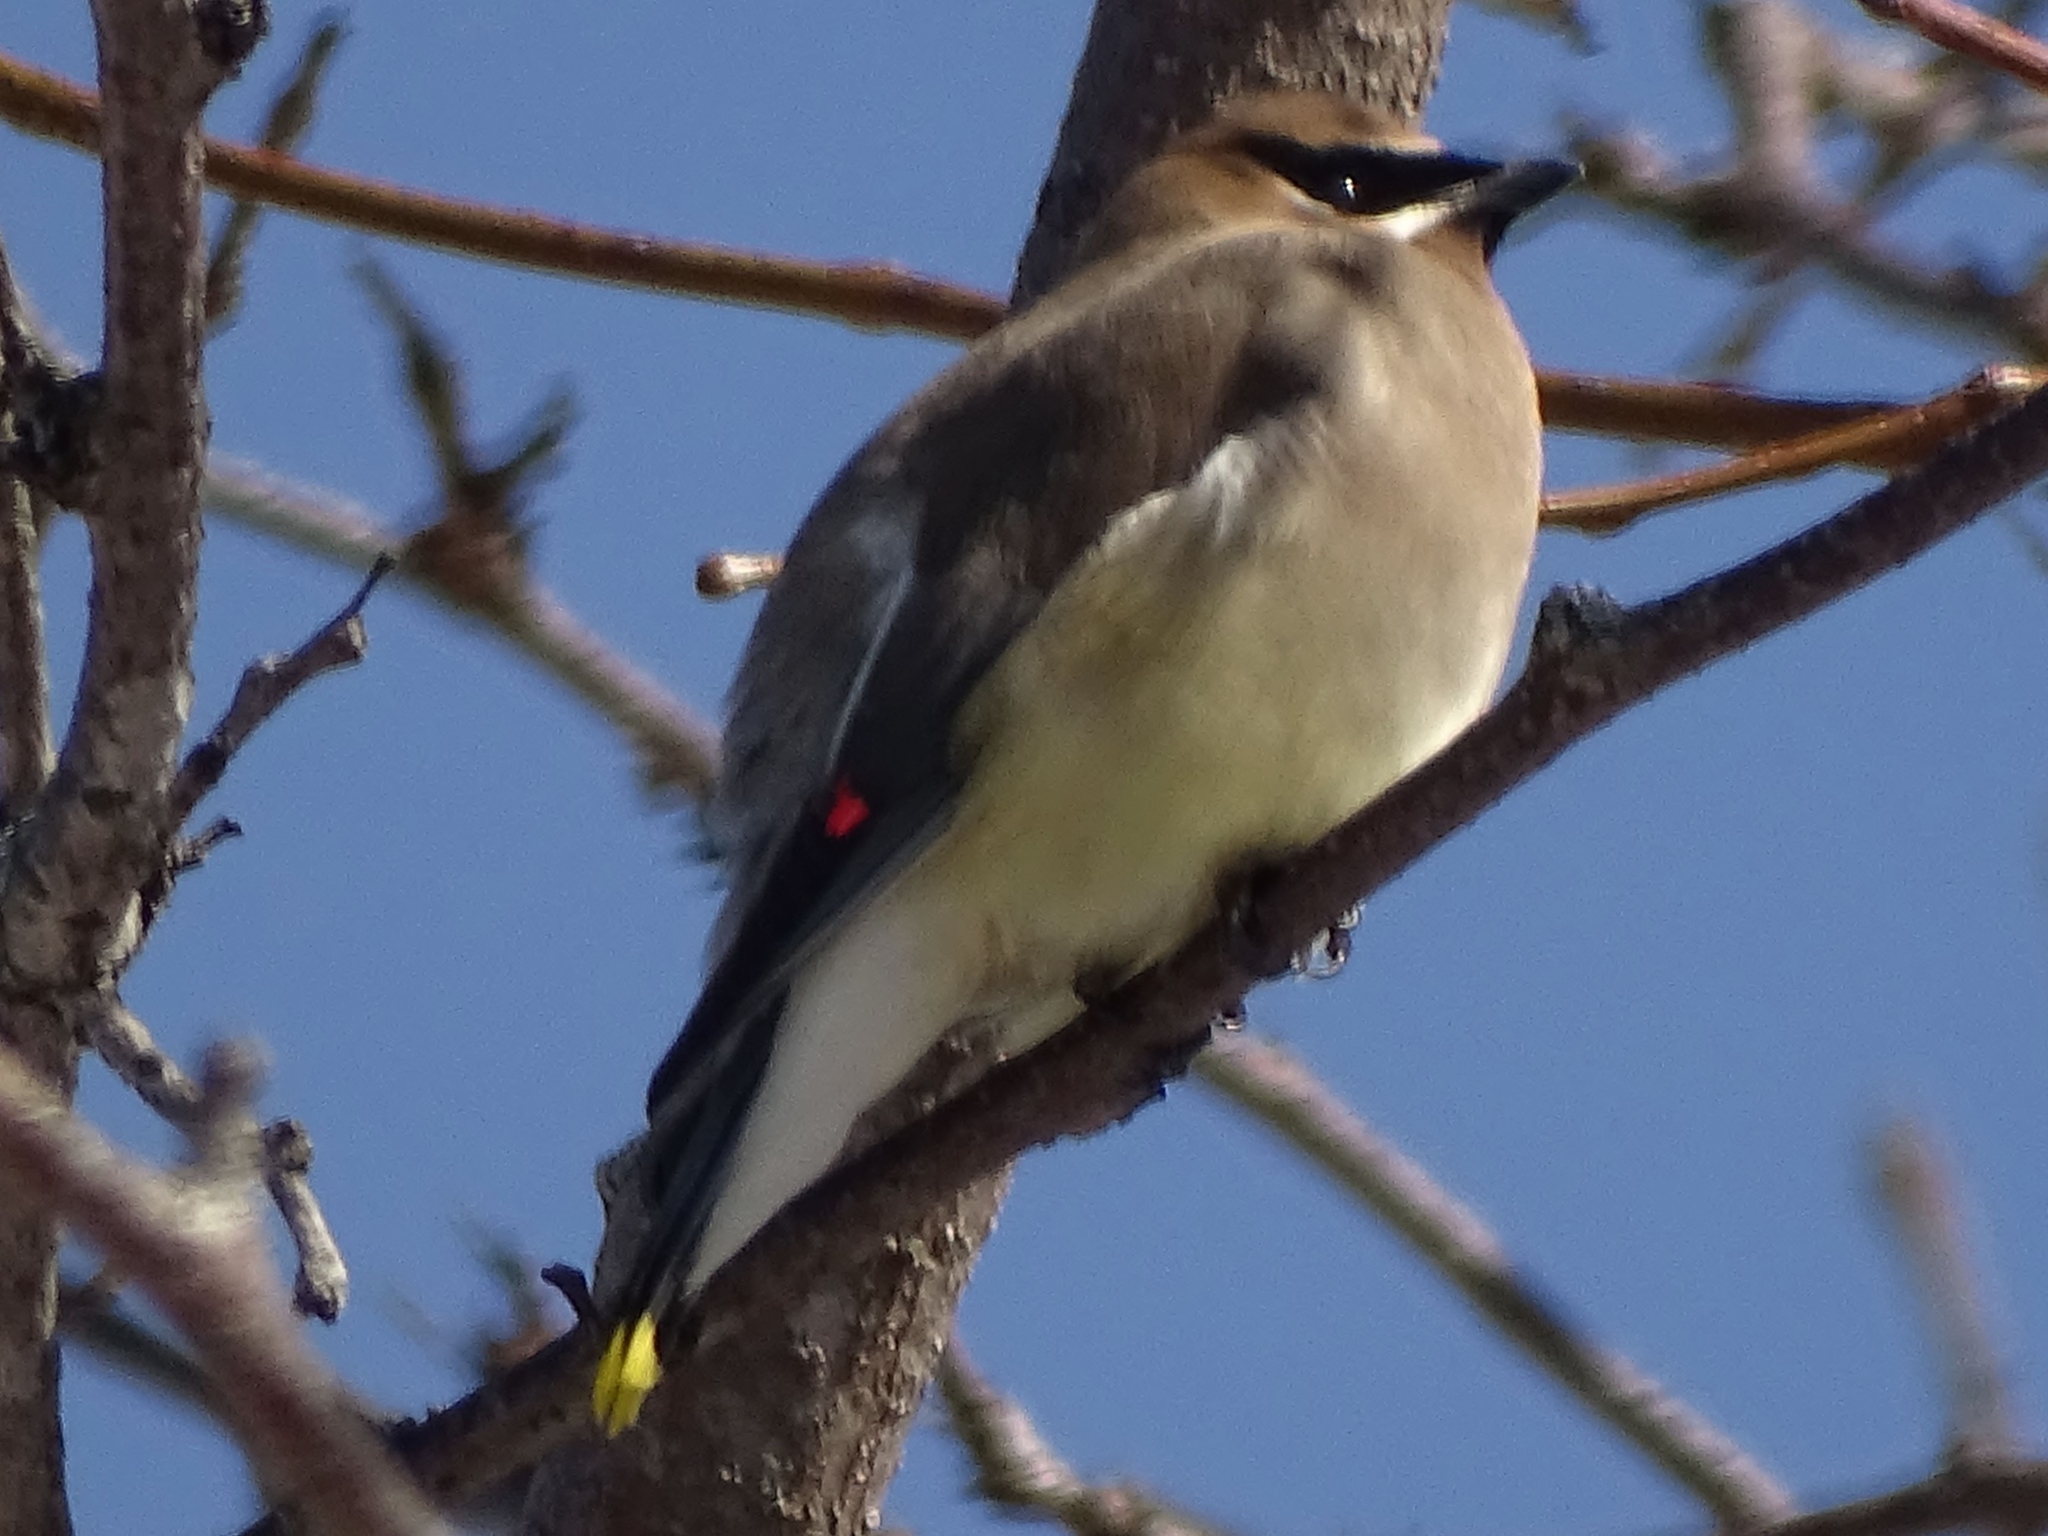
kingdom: Animalia
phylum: Chordata
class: Aves
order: Passeriformes
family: Bombycillidae
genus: Bombycilla
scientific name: Bombycilla cedrorum
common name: Cedar waxwing
